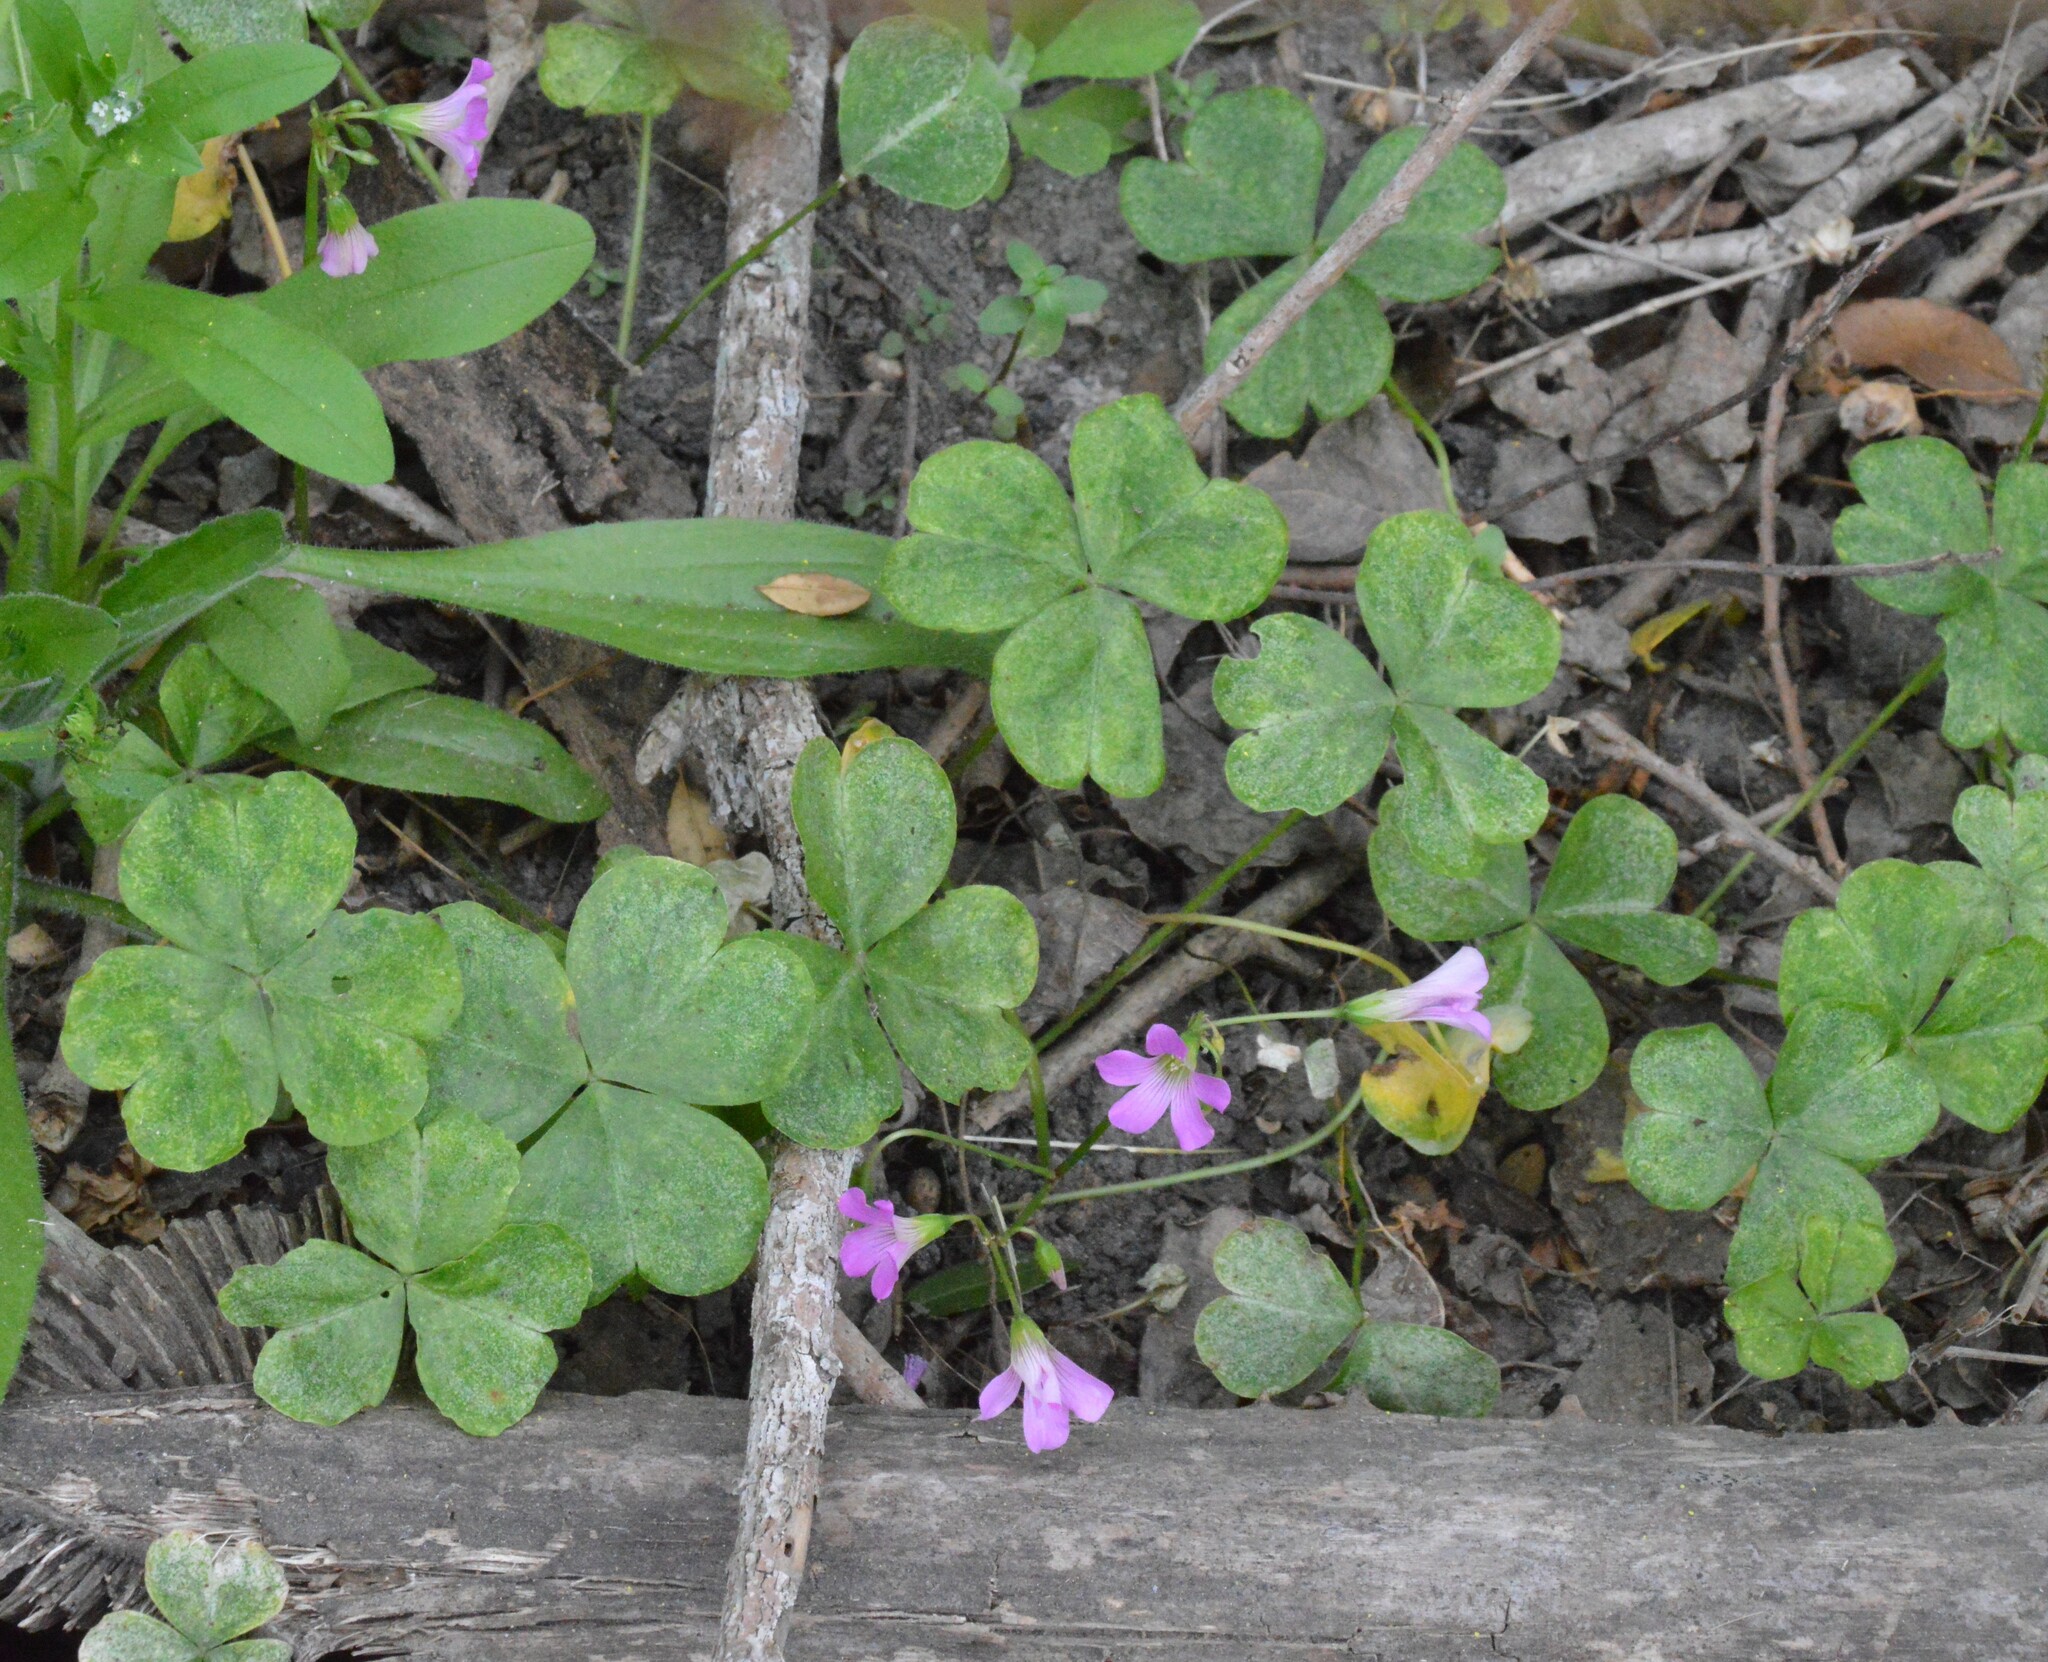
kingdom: Plantae
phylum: Tracheophyta
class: Magnoliopsida
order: Oxalidales
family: Oxalidaceae
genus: Oxalis
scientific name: Oxalis debilis
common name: Large-flowered pink-sorrel
